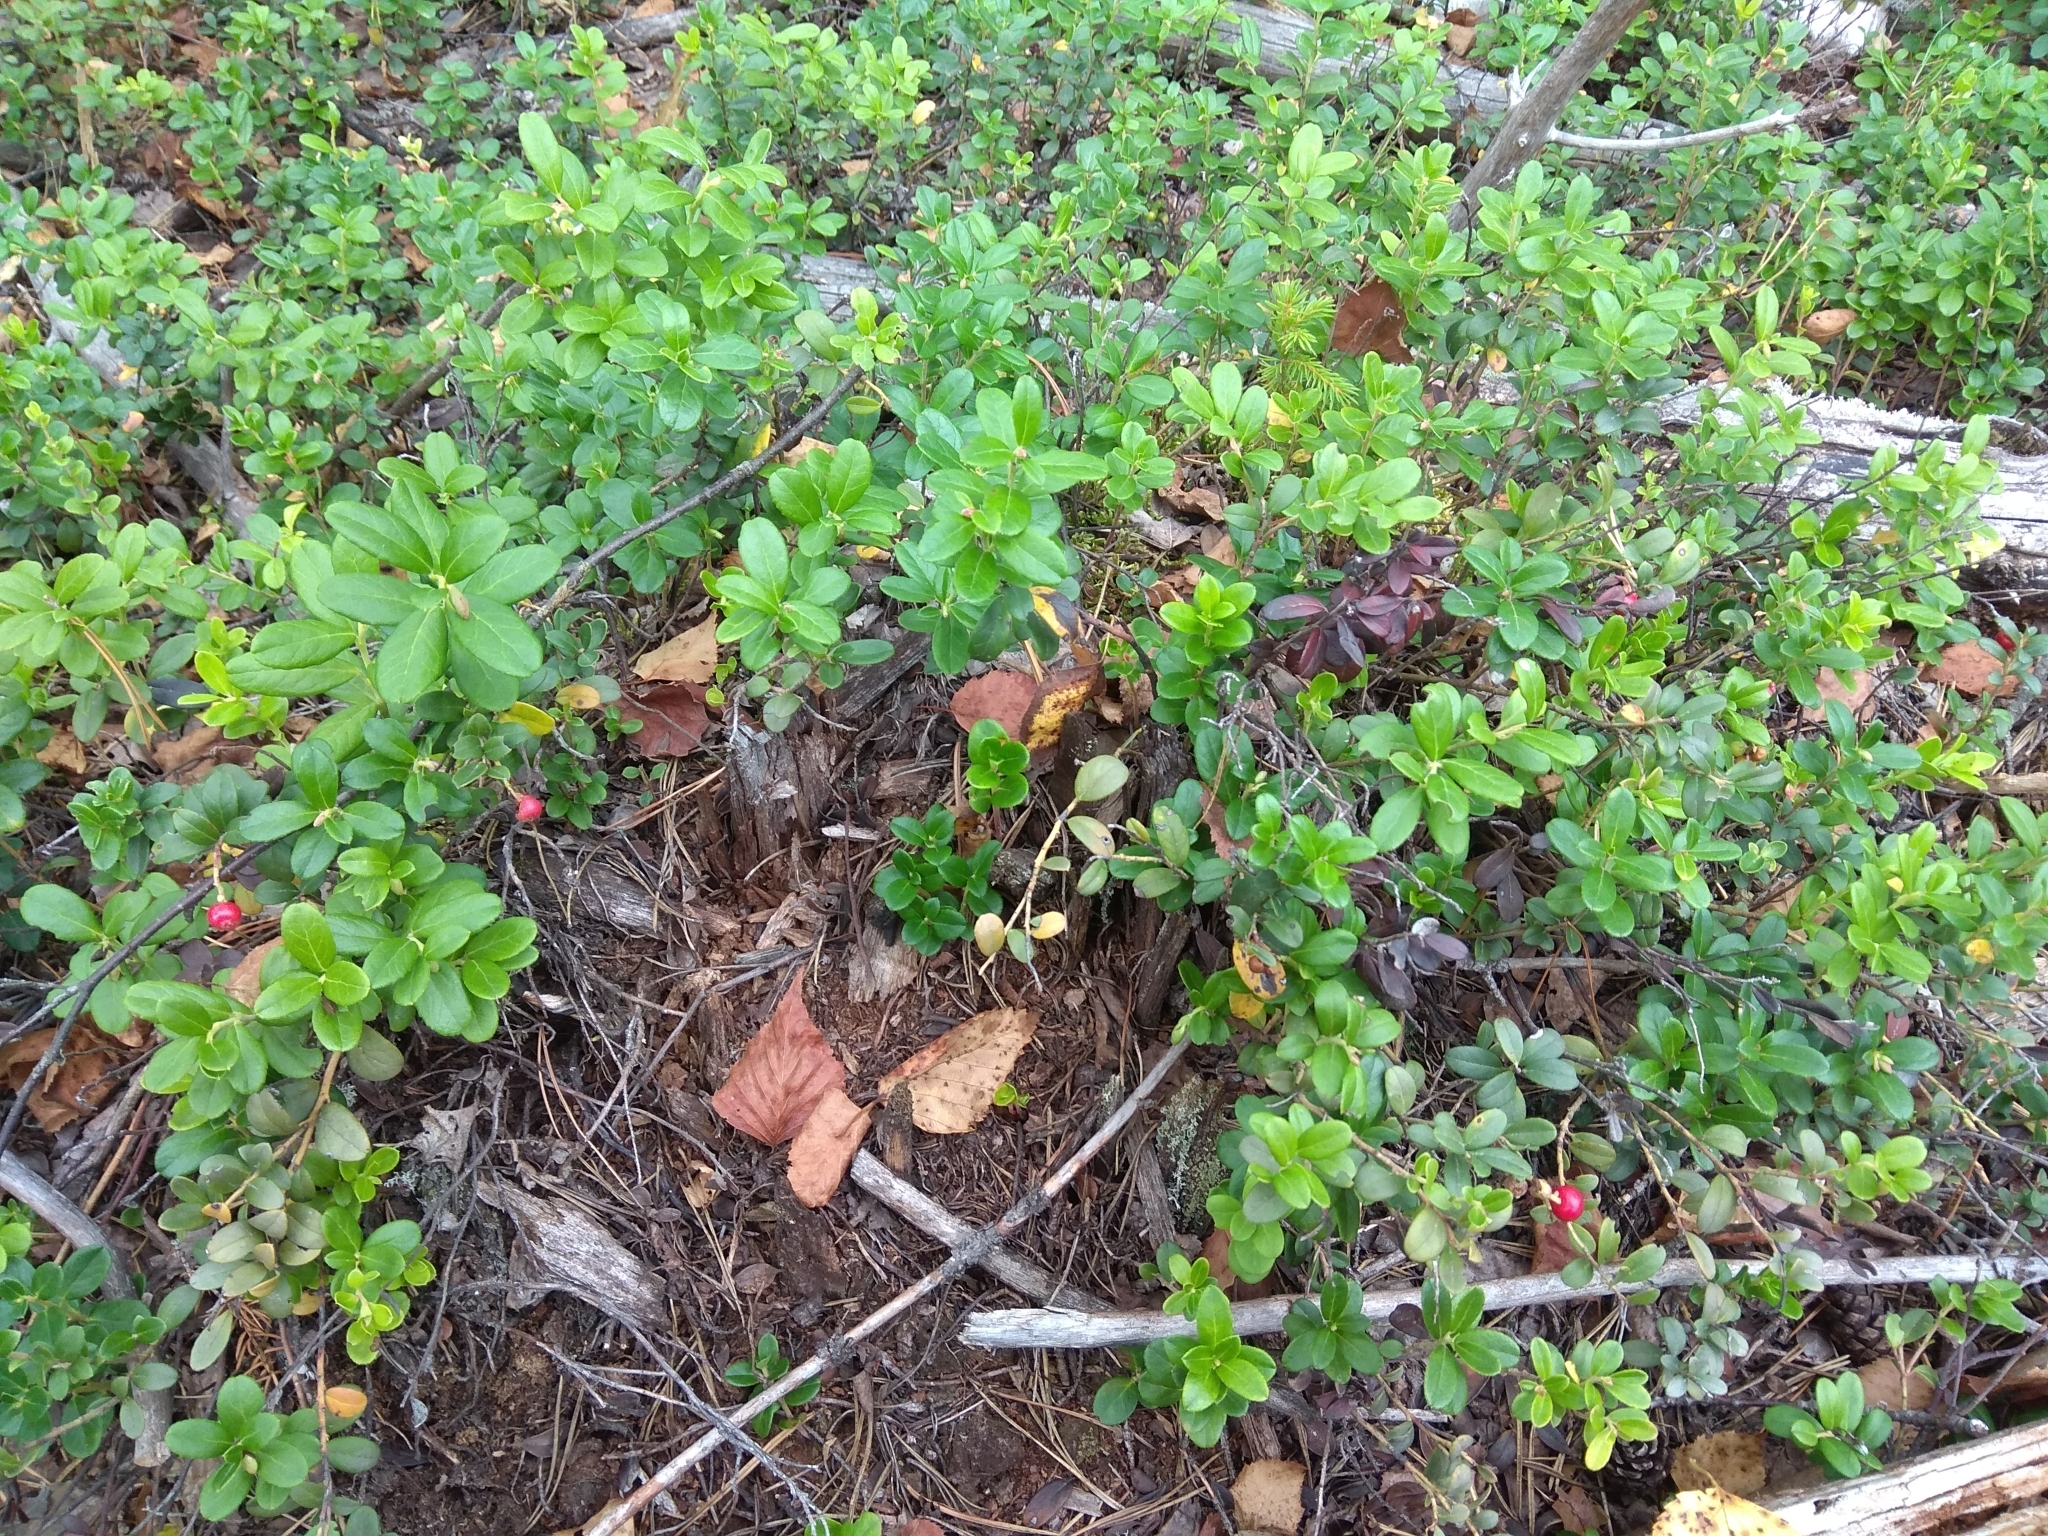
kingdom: Plantae
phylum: Tracheophyta
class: Magnoliopsida
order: Ericales
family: Ericaceae
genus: Vaccinium
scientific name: Vaccinium vitis-idaea
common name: Cowberry
